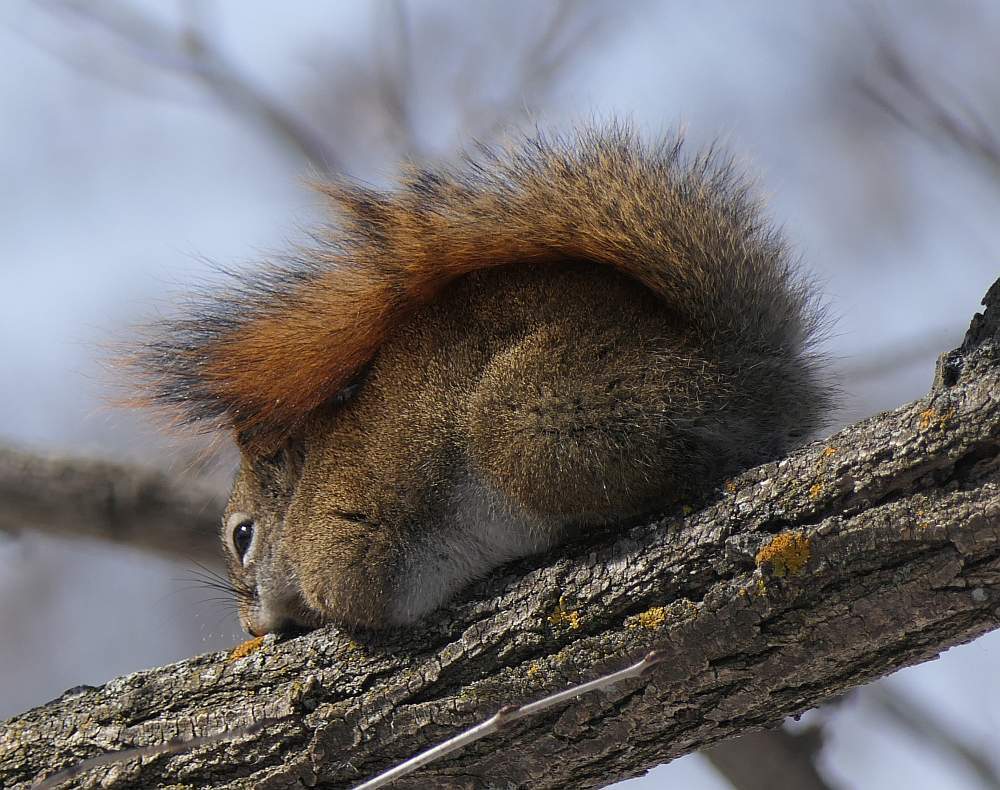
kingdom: Animalia
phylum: Chordata
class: Mammalia
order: Rodentia
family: Sciuridae
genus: Tamiasciurus
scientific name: Tamiasciurus hudsonicus
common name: Red squirrel
